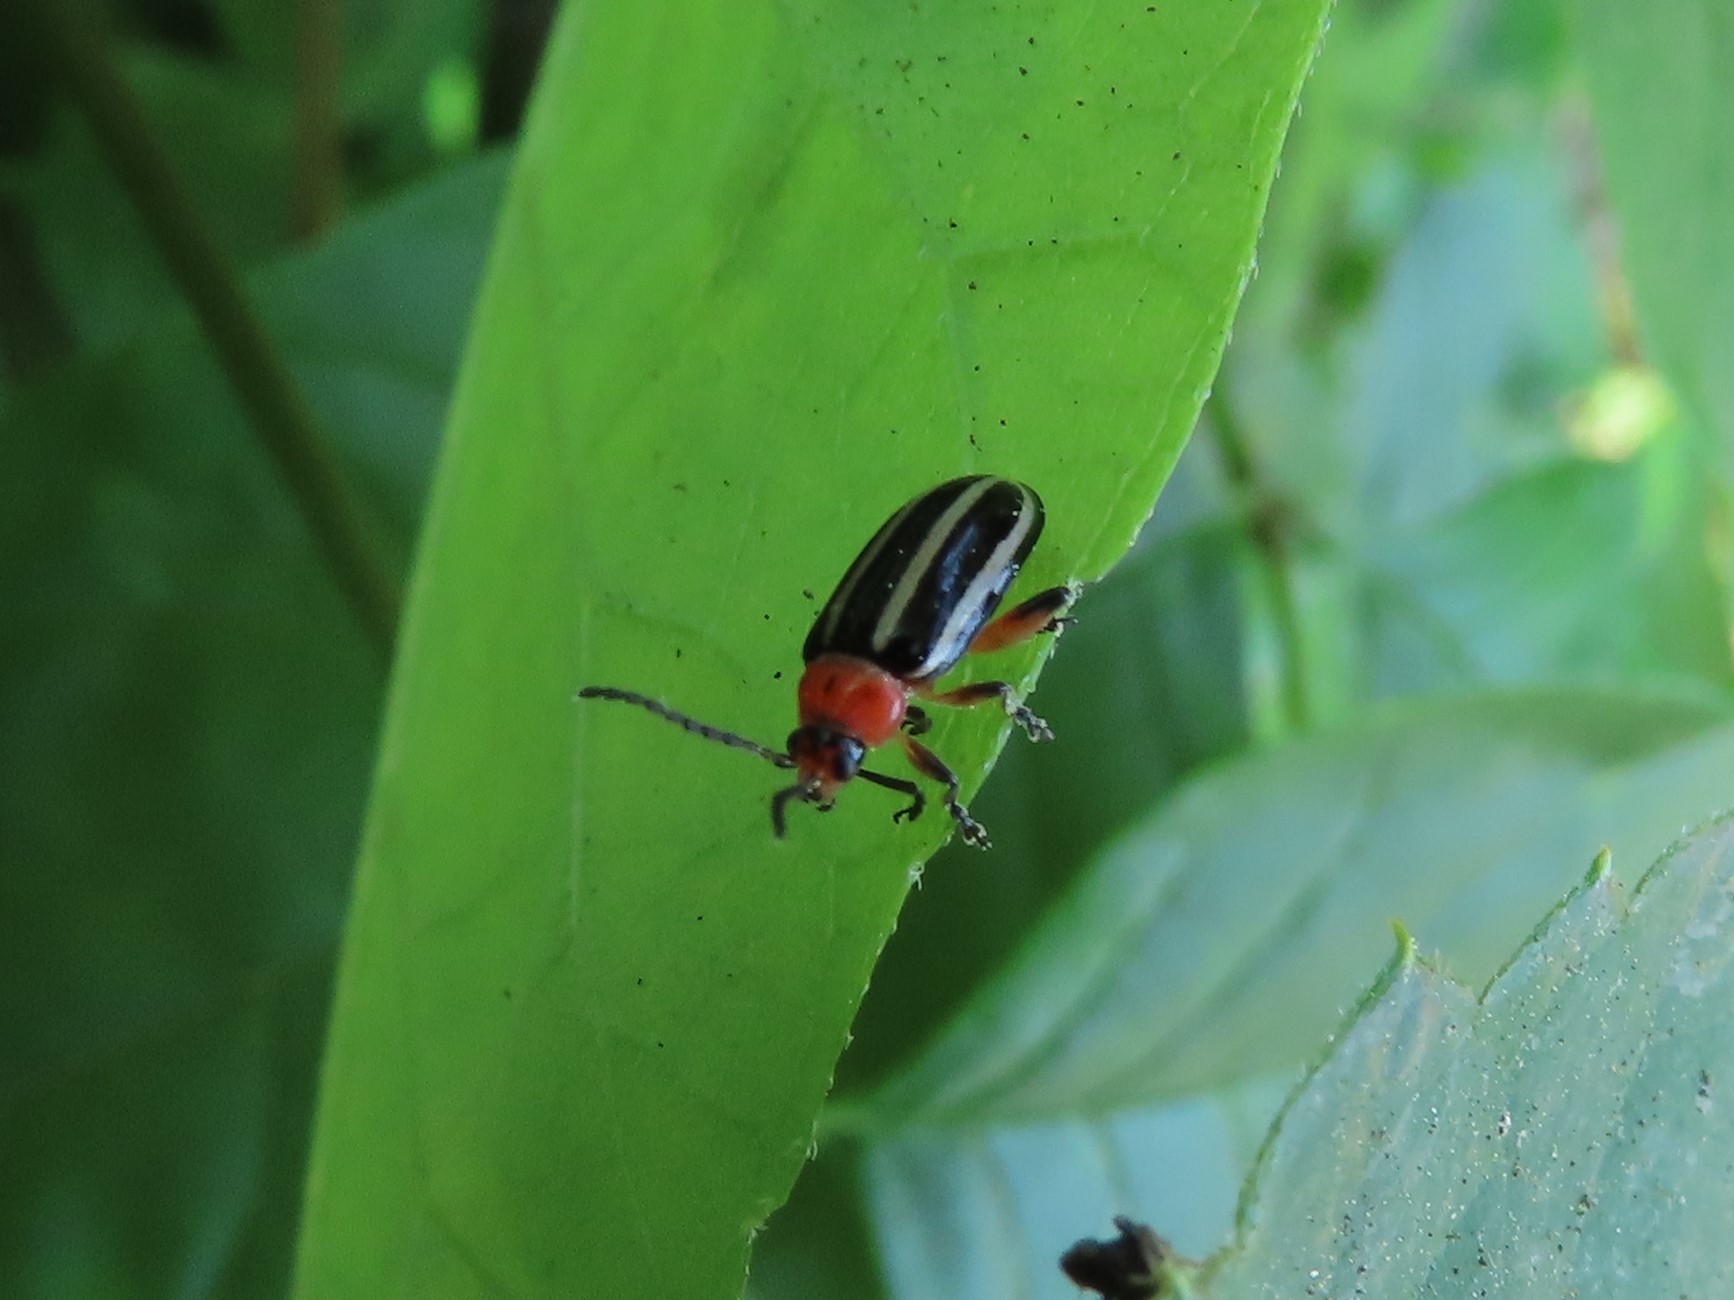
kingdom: Animalia
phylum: Arthropoda
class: Insecta
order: Coleoptera
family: Chrysomelidae
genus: Disonycha
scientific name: Disonycha glabrata
